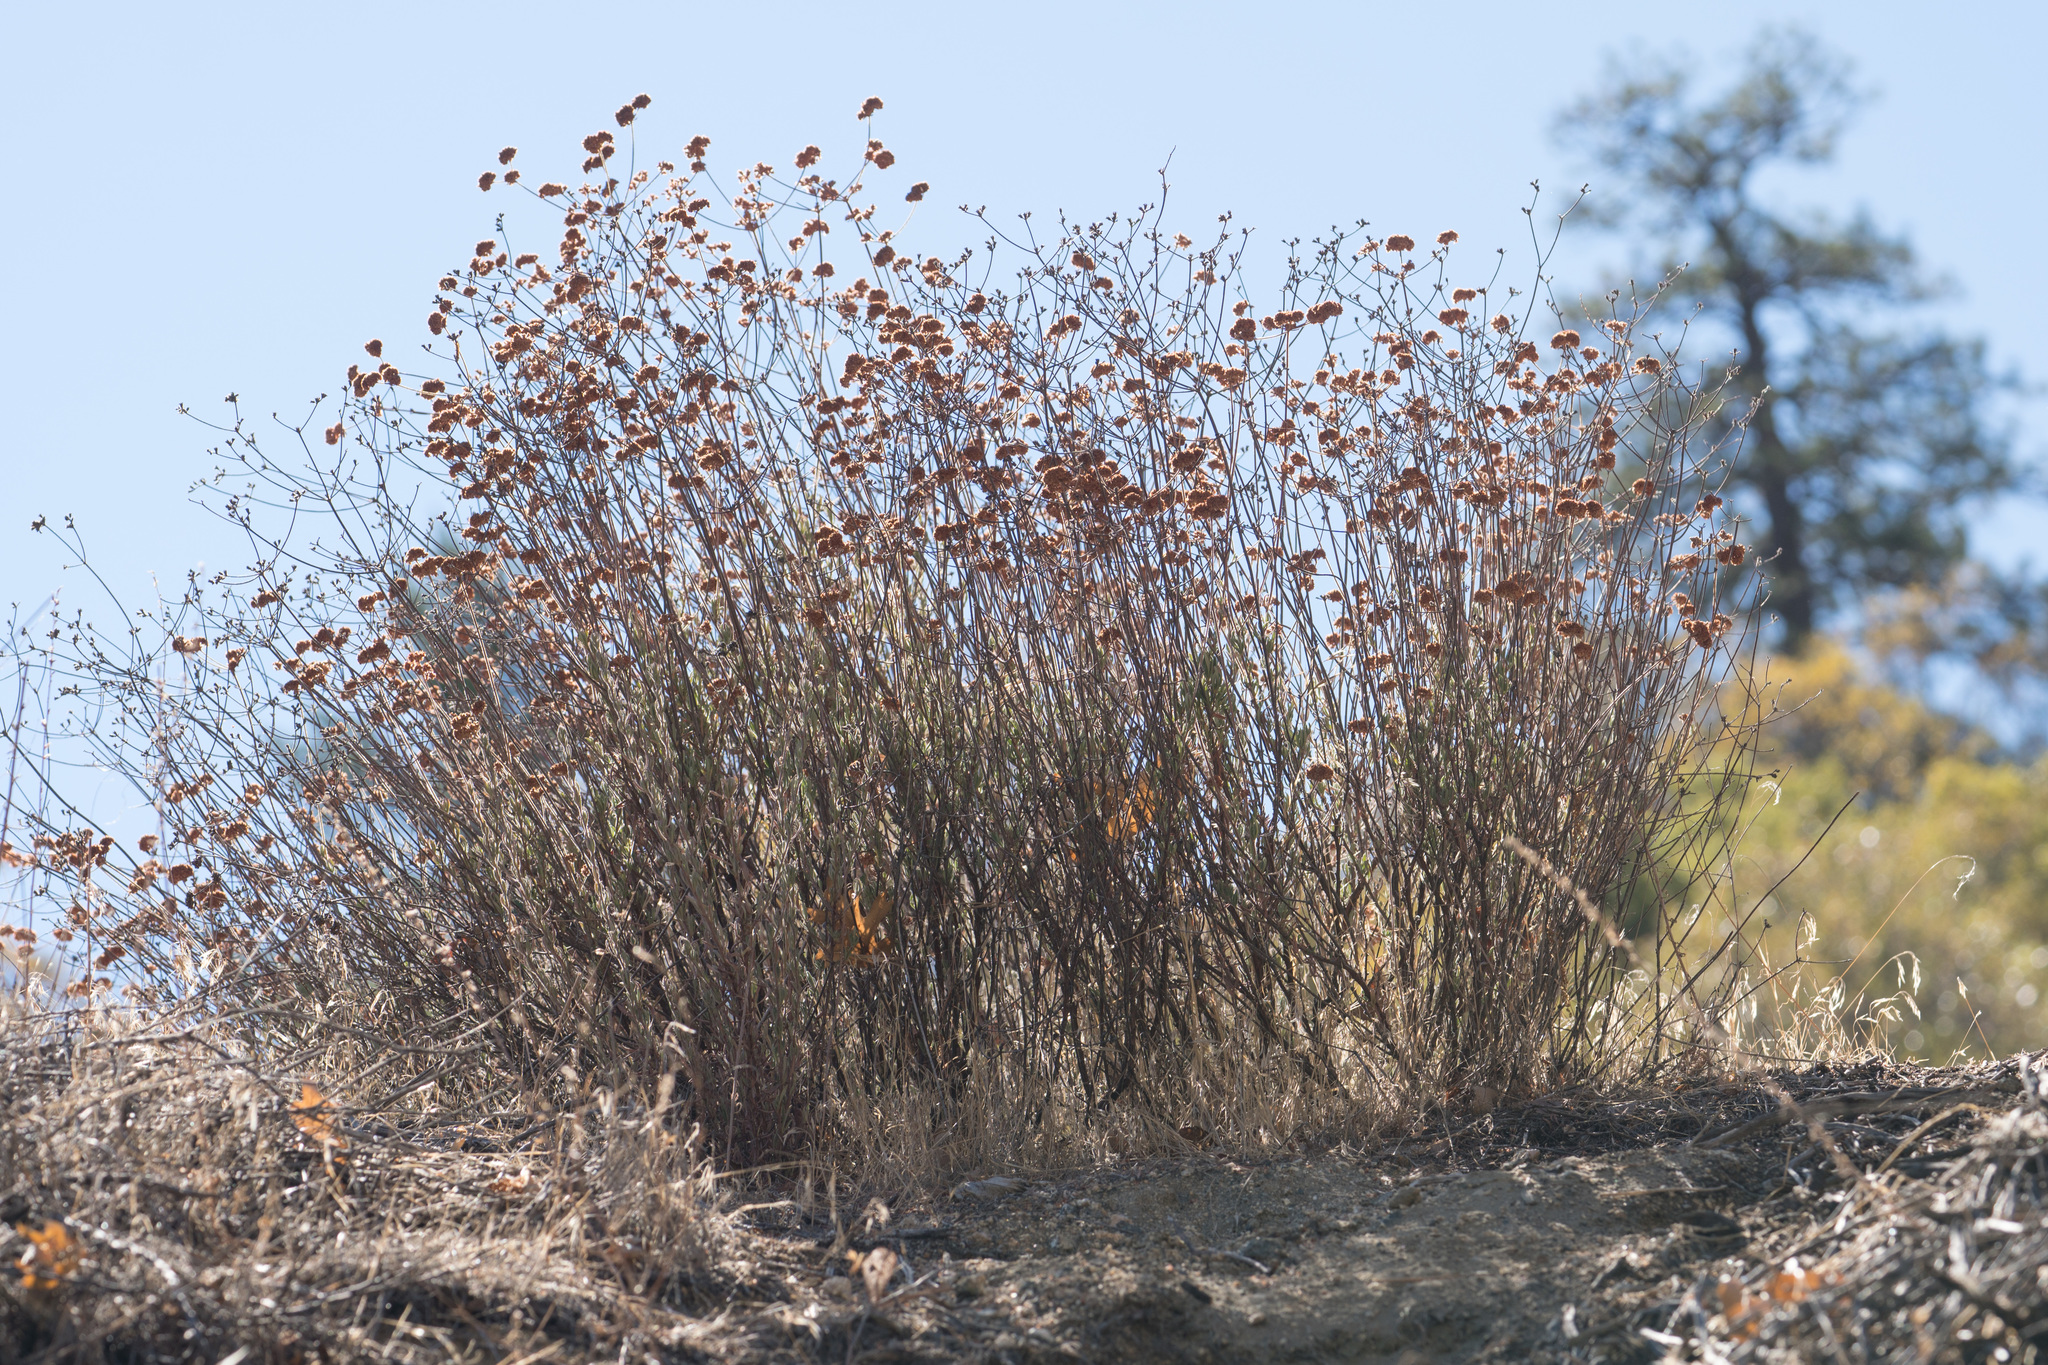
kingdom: Plantae
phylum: Tracheophyta
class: Magnoliopsida
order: Caryophyllales
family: Polygonaceae
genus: Eriogonum
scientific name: Eriogonum fasciculatum
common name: California wild buckwheat
